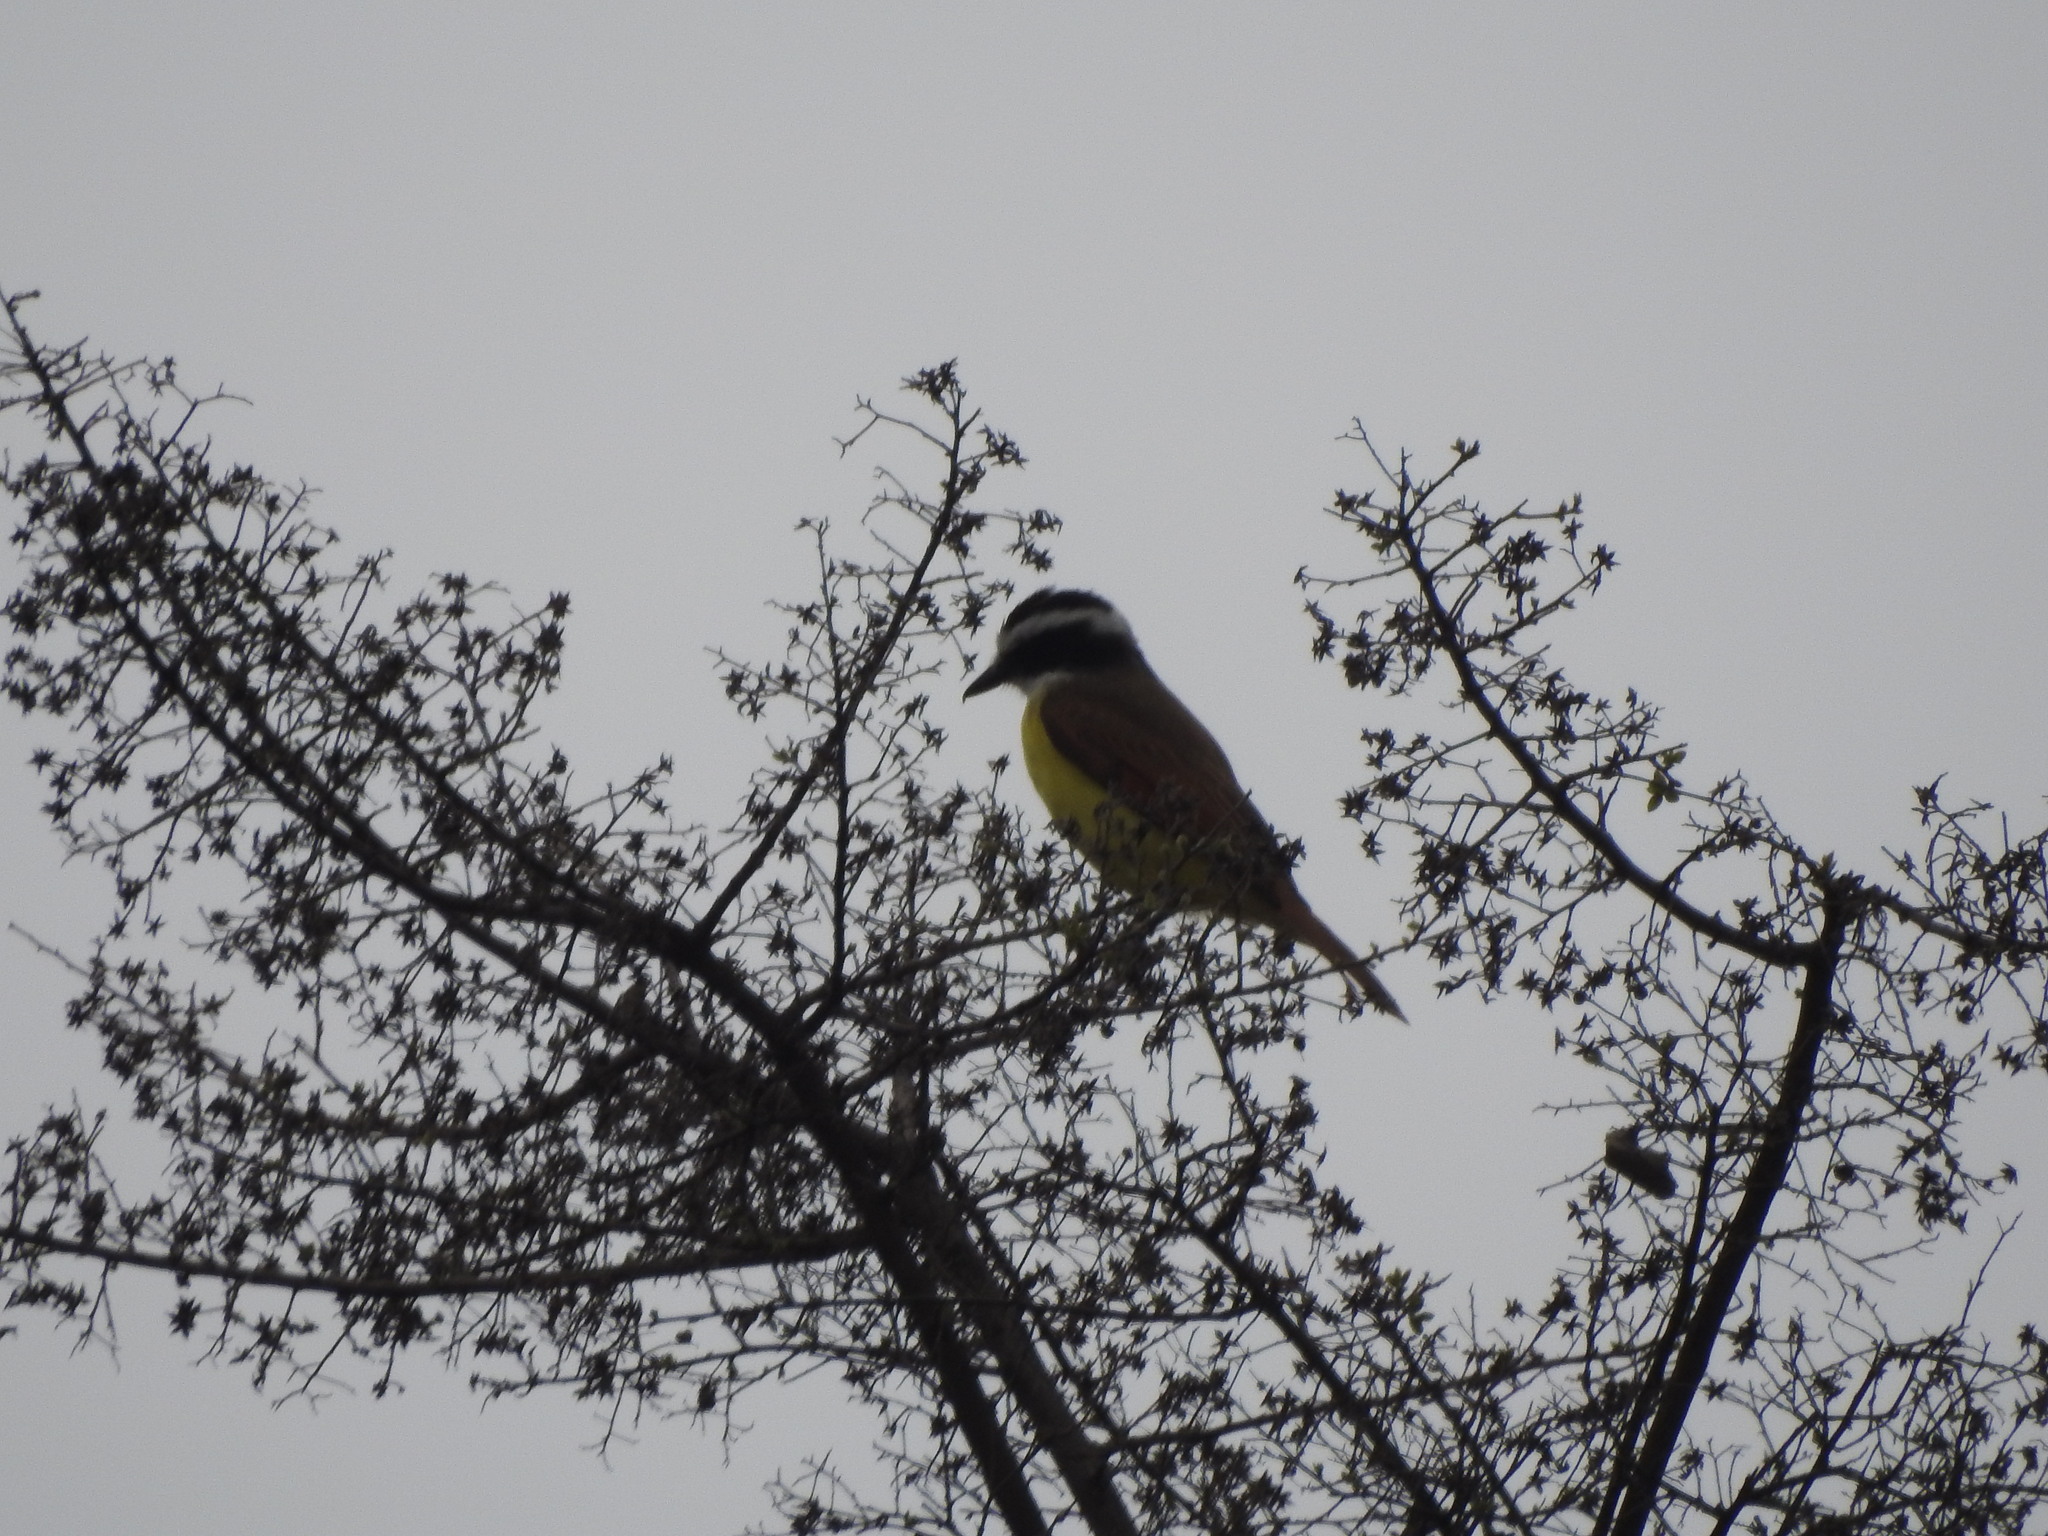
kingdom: Animalia
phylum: Chordata
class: Aves
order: Passeriformes
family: Tyrannidae
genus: Pitangus
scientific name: Pitangus sulphuratus
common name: Great kiskadee
